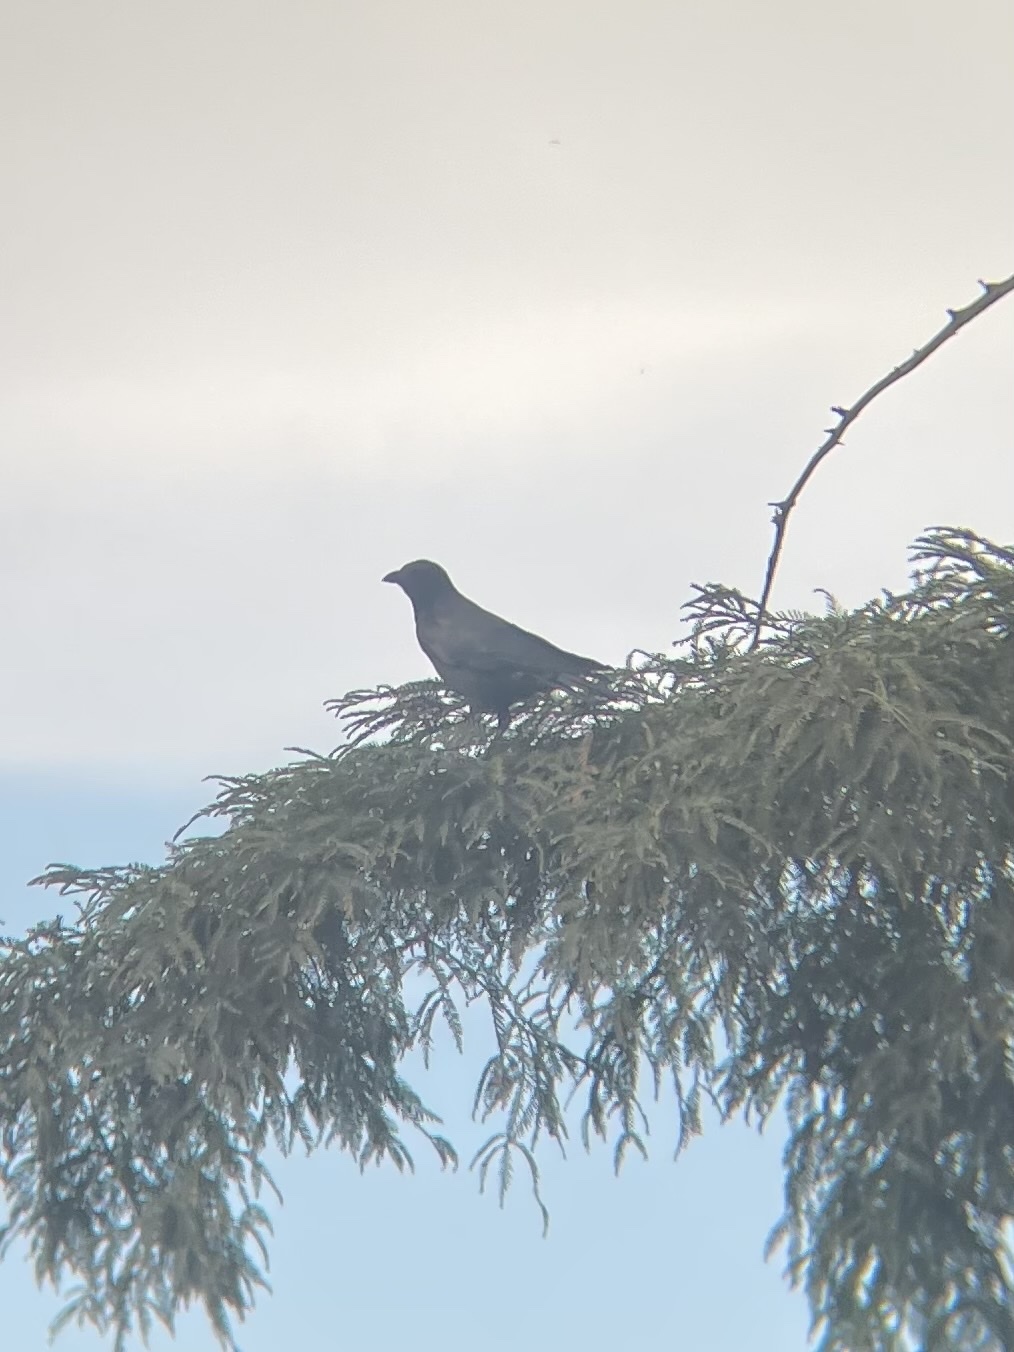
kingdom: Animalia
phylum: Chordata
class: Aves
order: Passeriformes
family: Corvidae
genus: Corvus
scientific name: Corvus brachyrhynchos
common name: American crow
